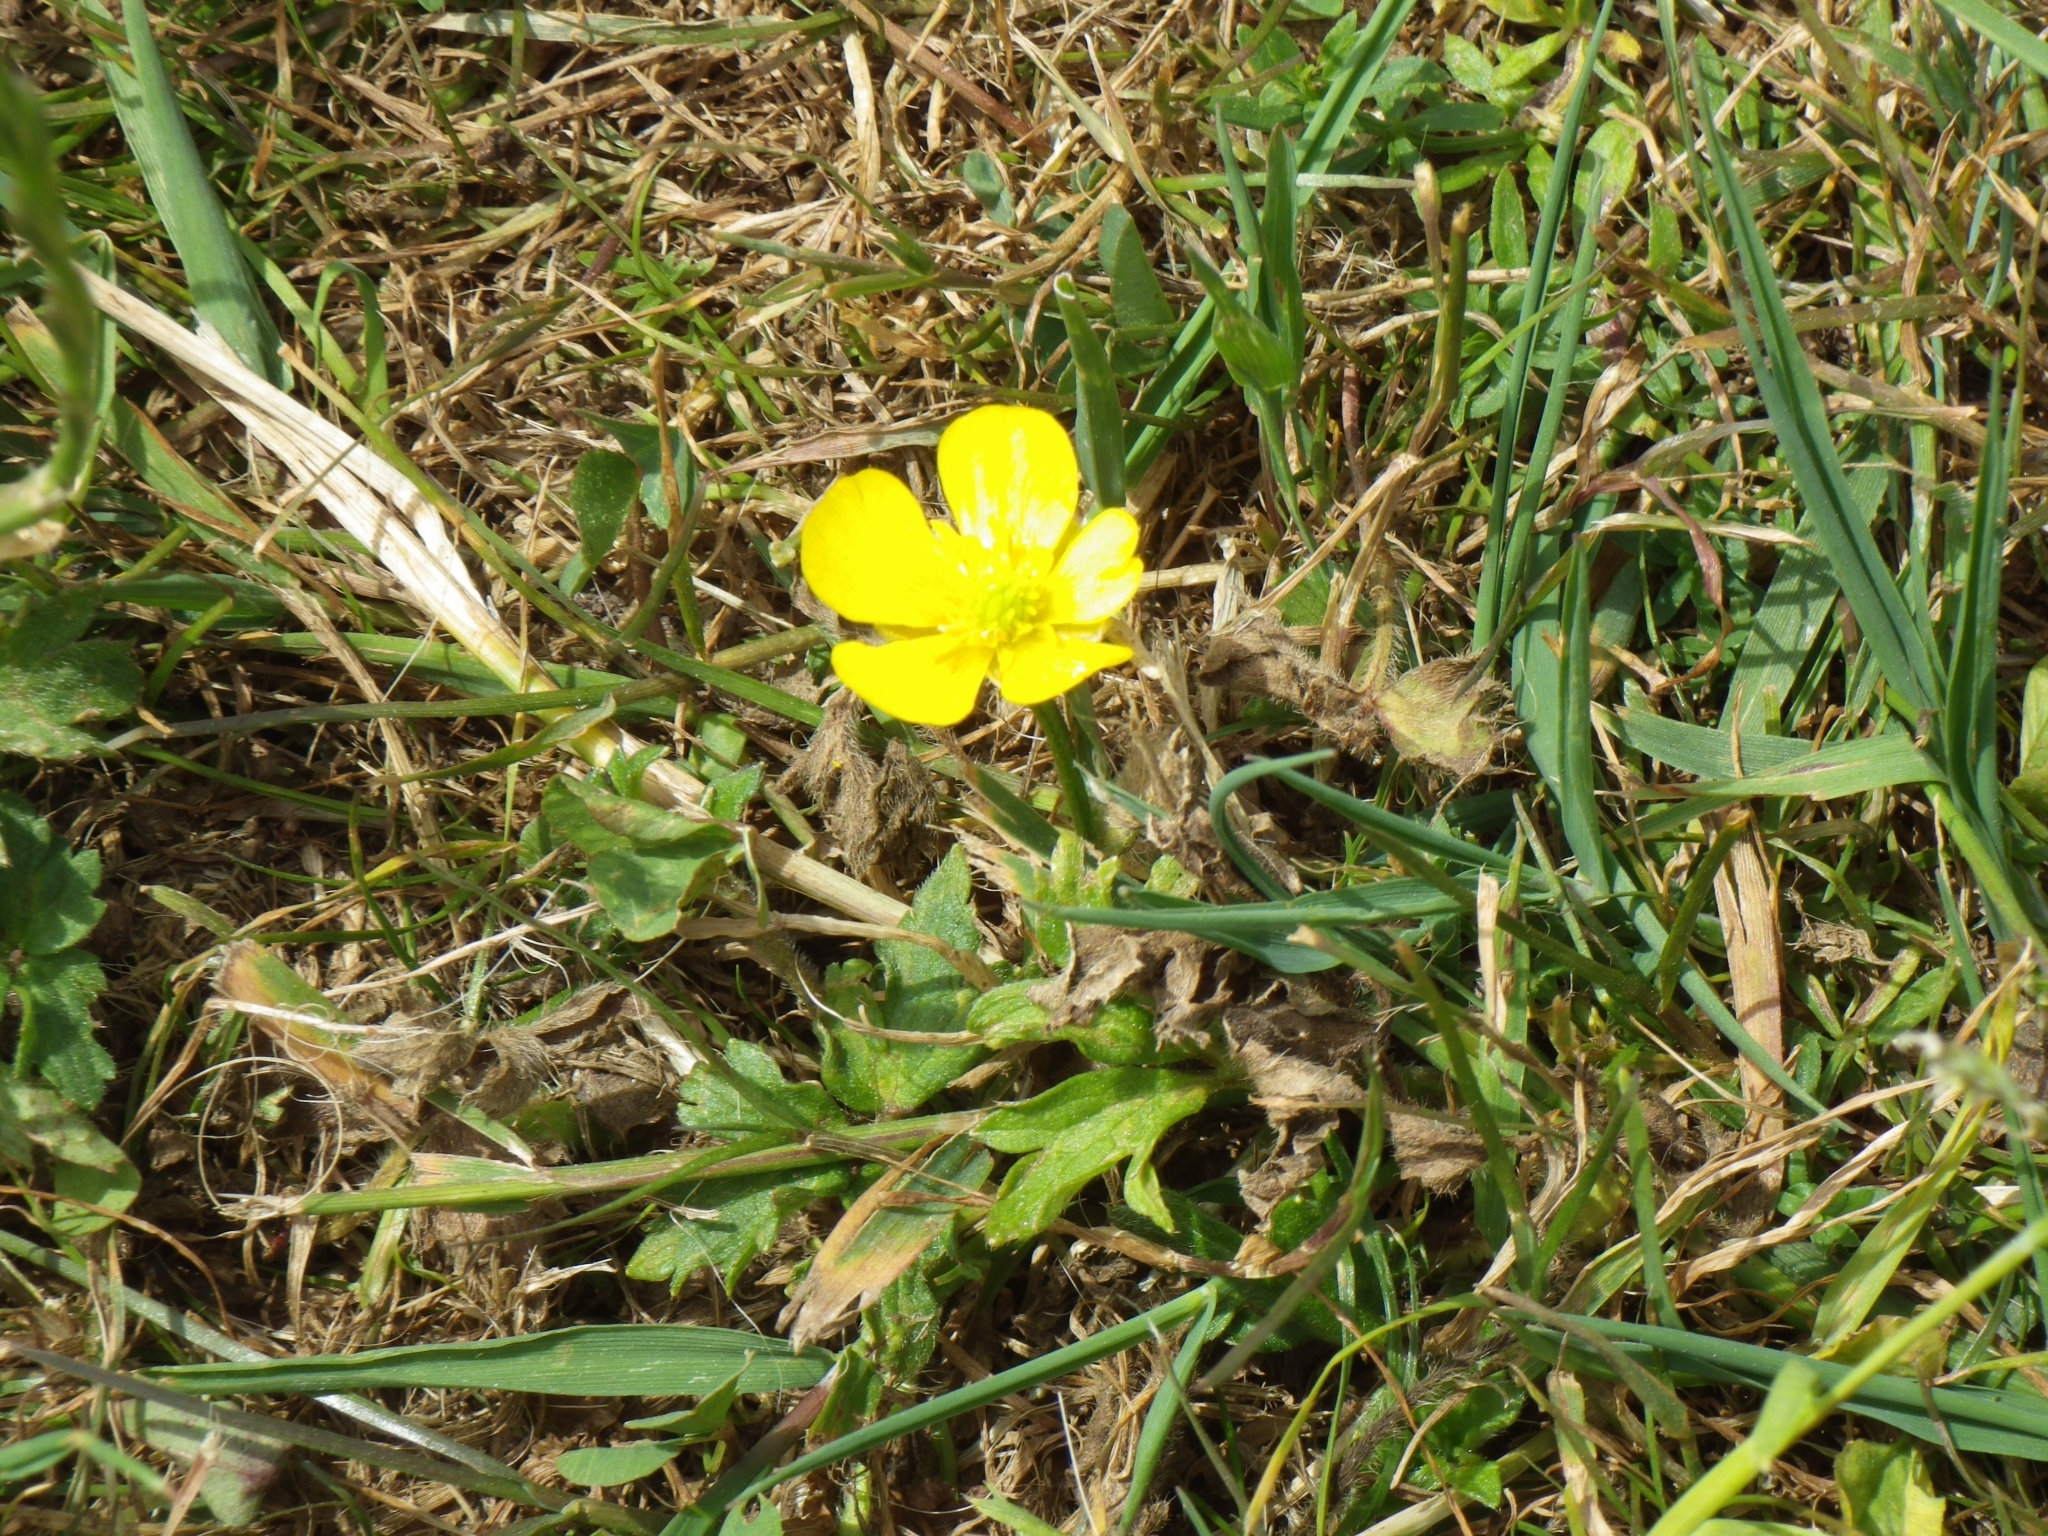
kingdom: Plantae
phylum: Tracheophyta
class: Magnoliopsida
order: Ranunculales
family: Ranunculaceae
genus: Ranunculus
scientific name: Ranunculus repens
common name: Creeping buttercup
